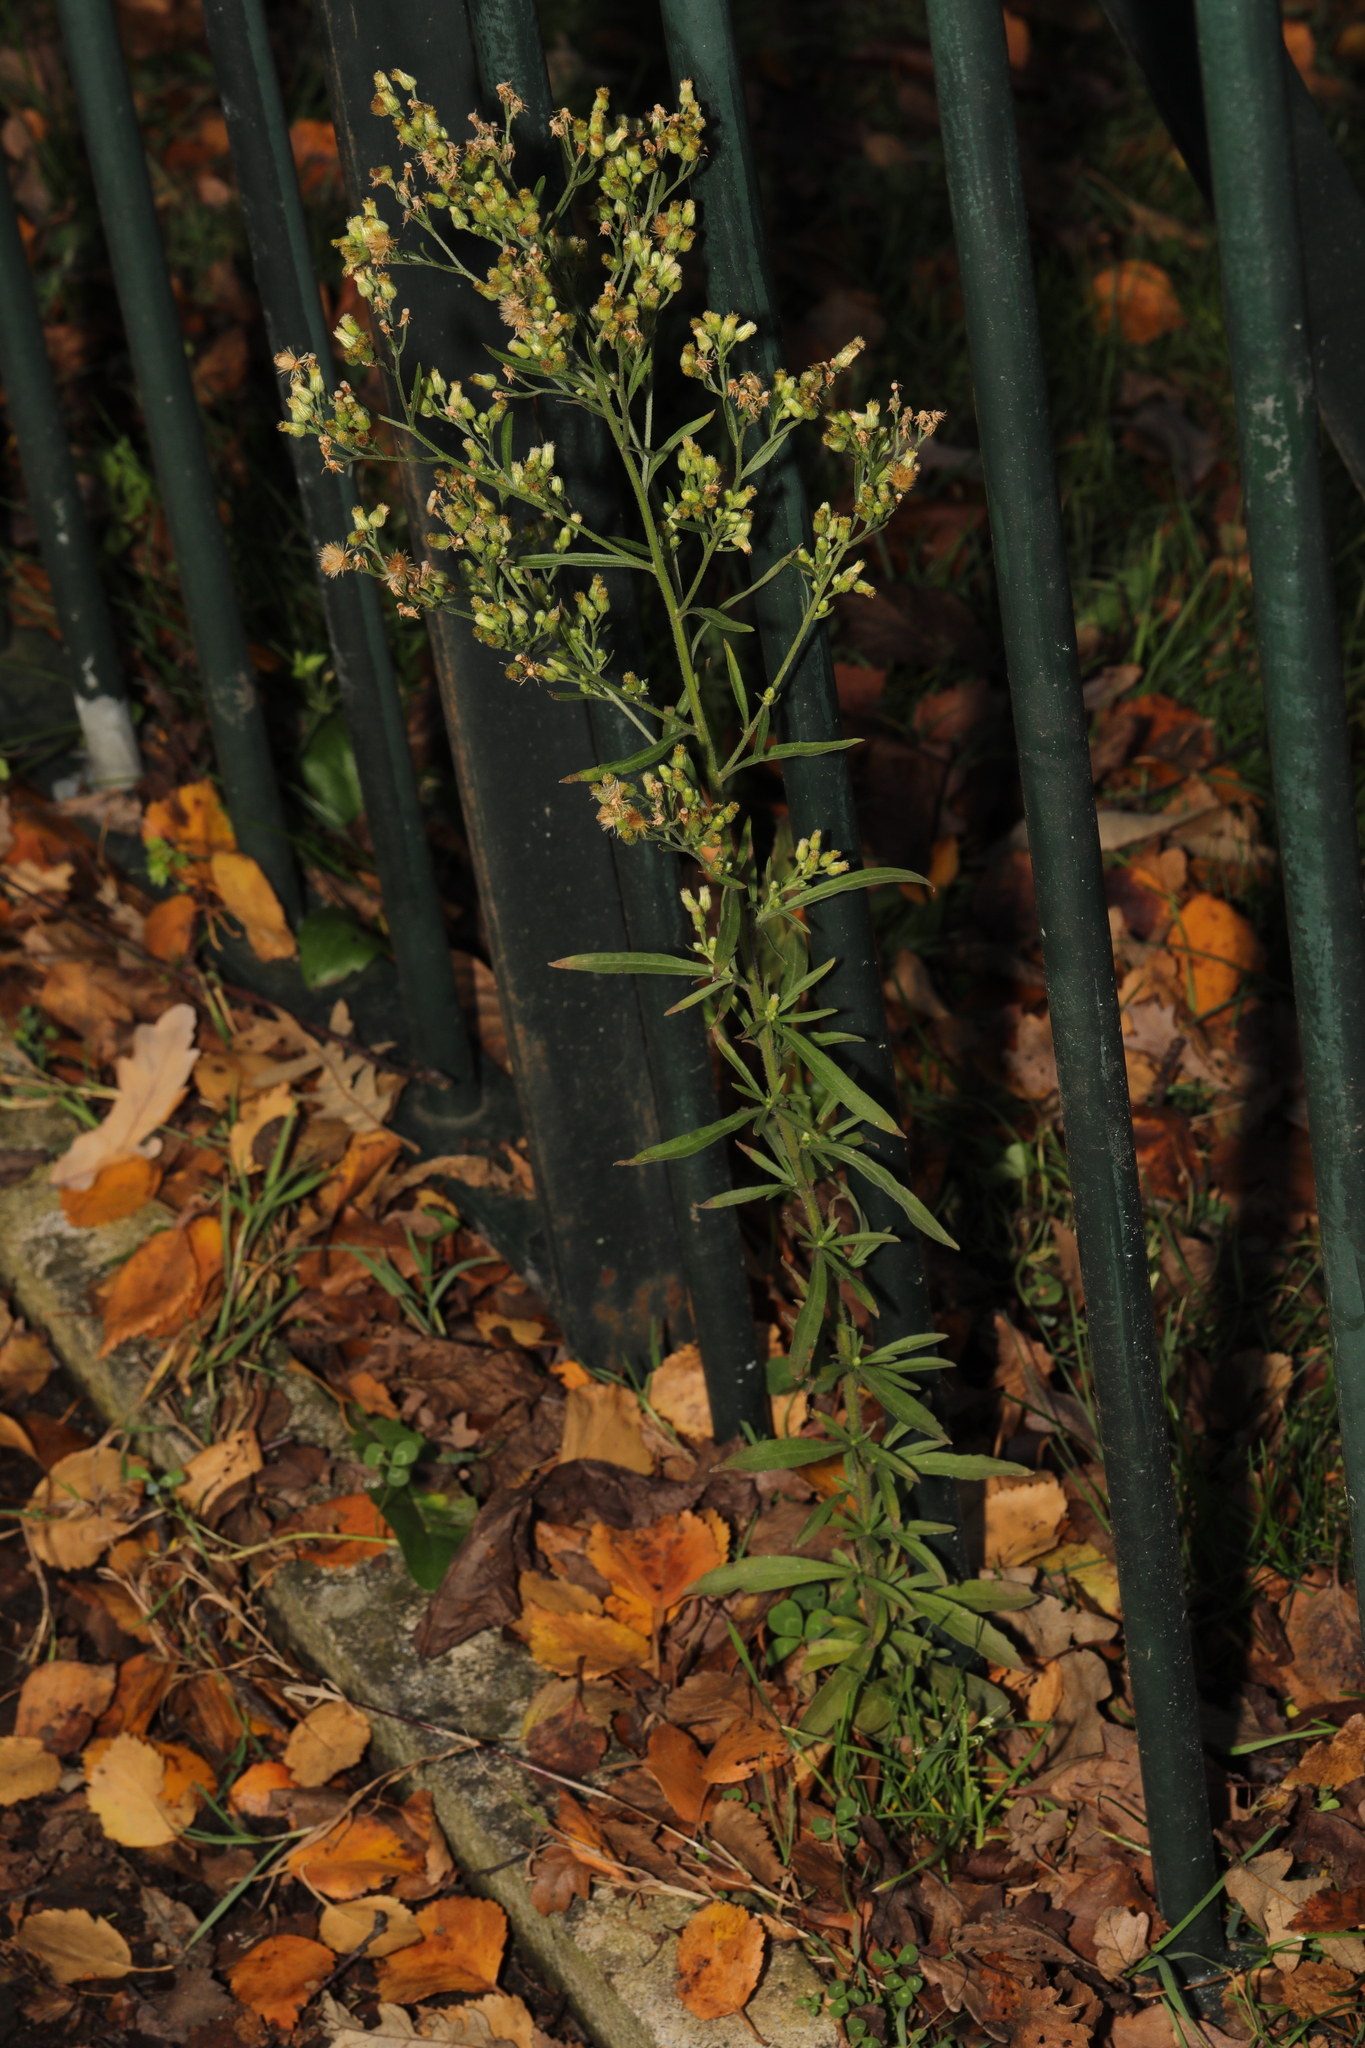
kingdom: Plantae
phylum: Tracheophyta
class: Magnoliopsida
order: Asterales
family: Asteraceae
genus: Erigeron
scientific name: Erigeron canadensis
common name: Canadian fleabane
